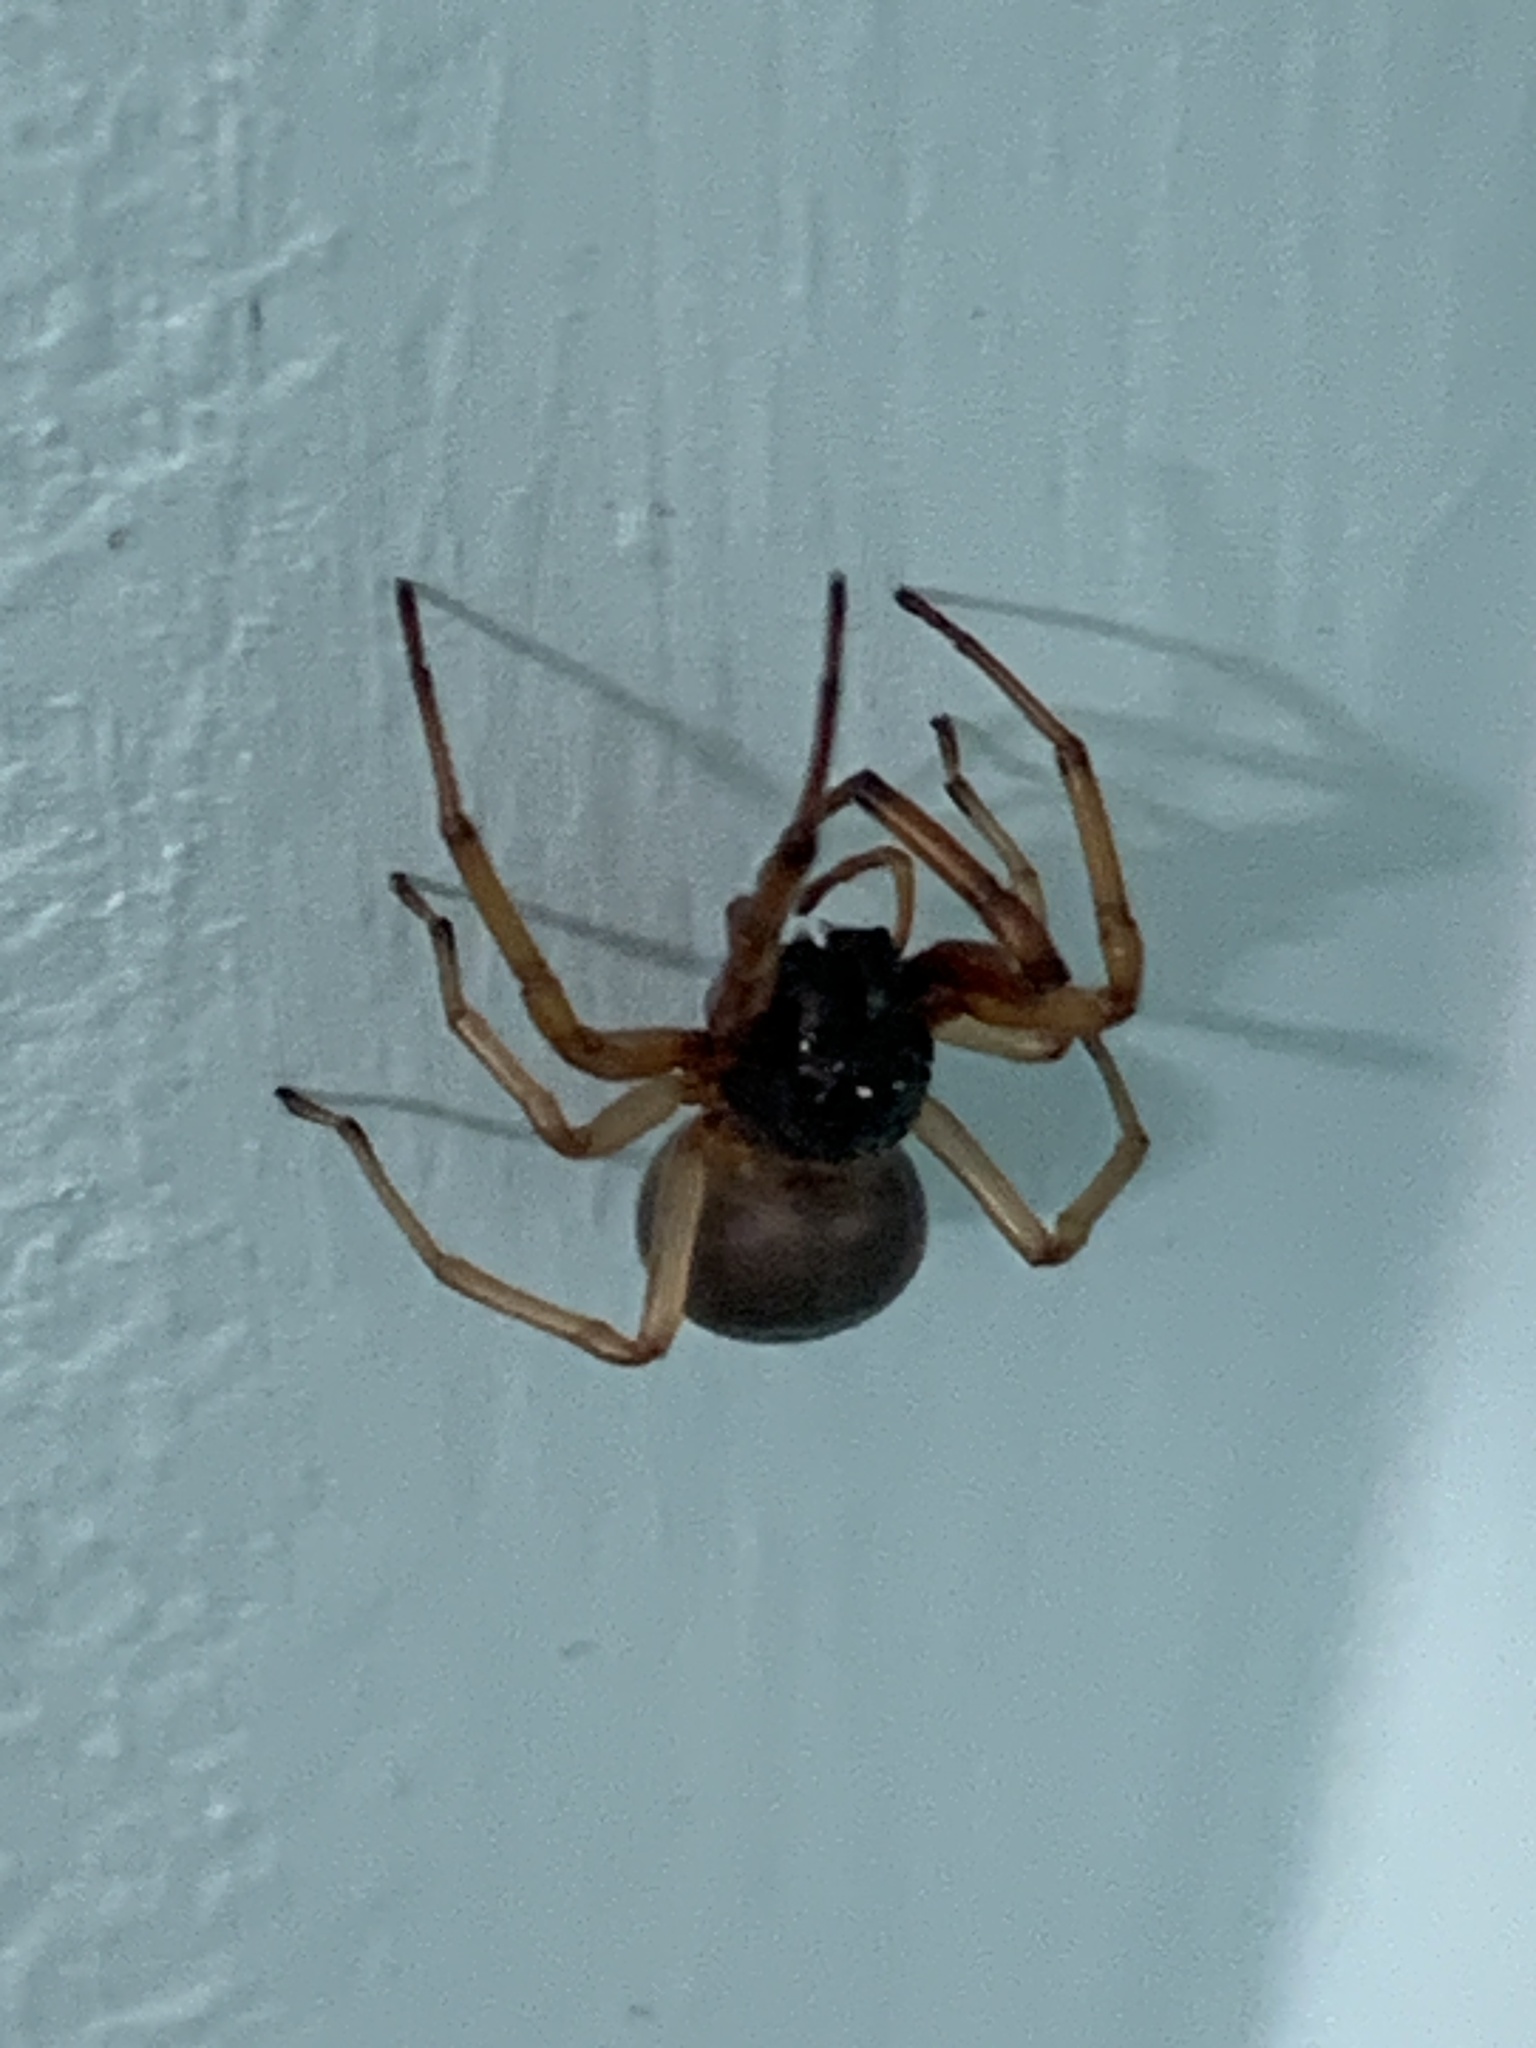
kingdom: Animalia
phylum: Arthropoda
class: Arachnida
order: Araneae
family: Trachelidae
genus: Trachelas
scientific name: Trachelas tranquillus
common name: Broad-faced sac spider
